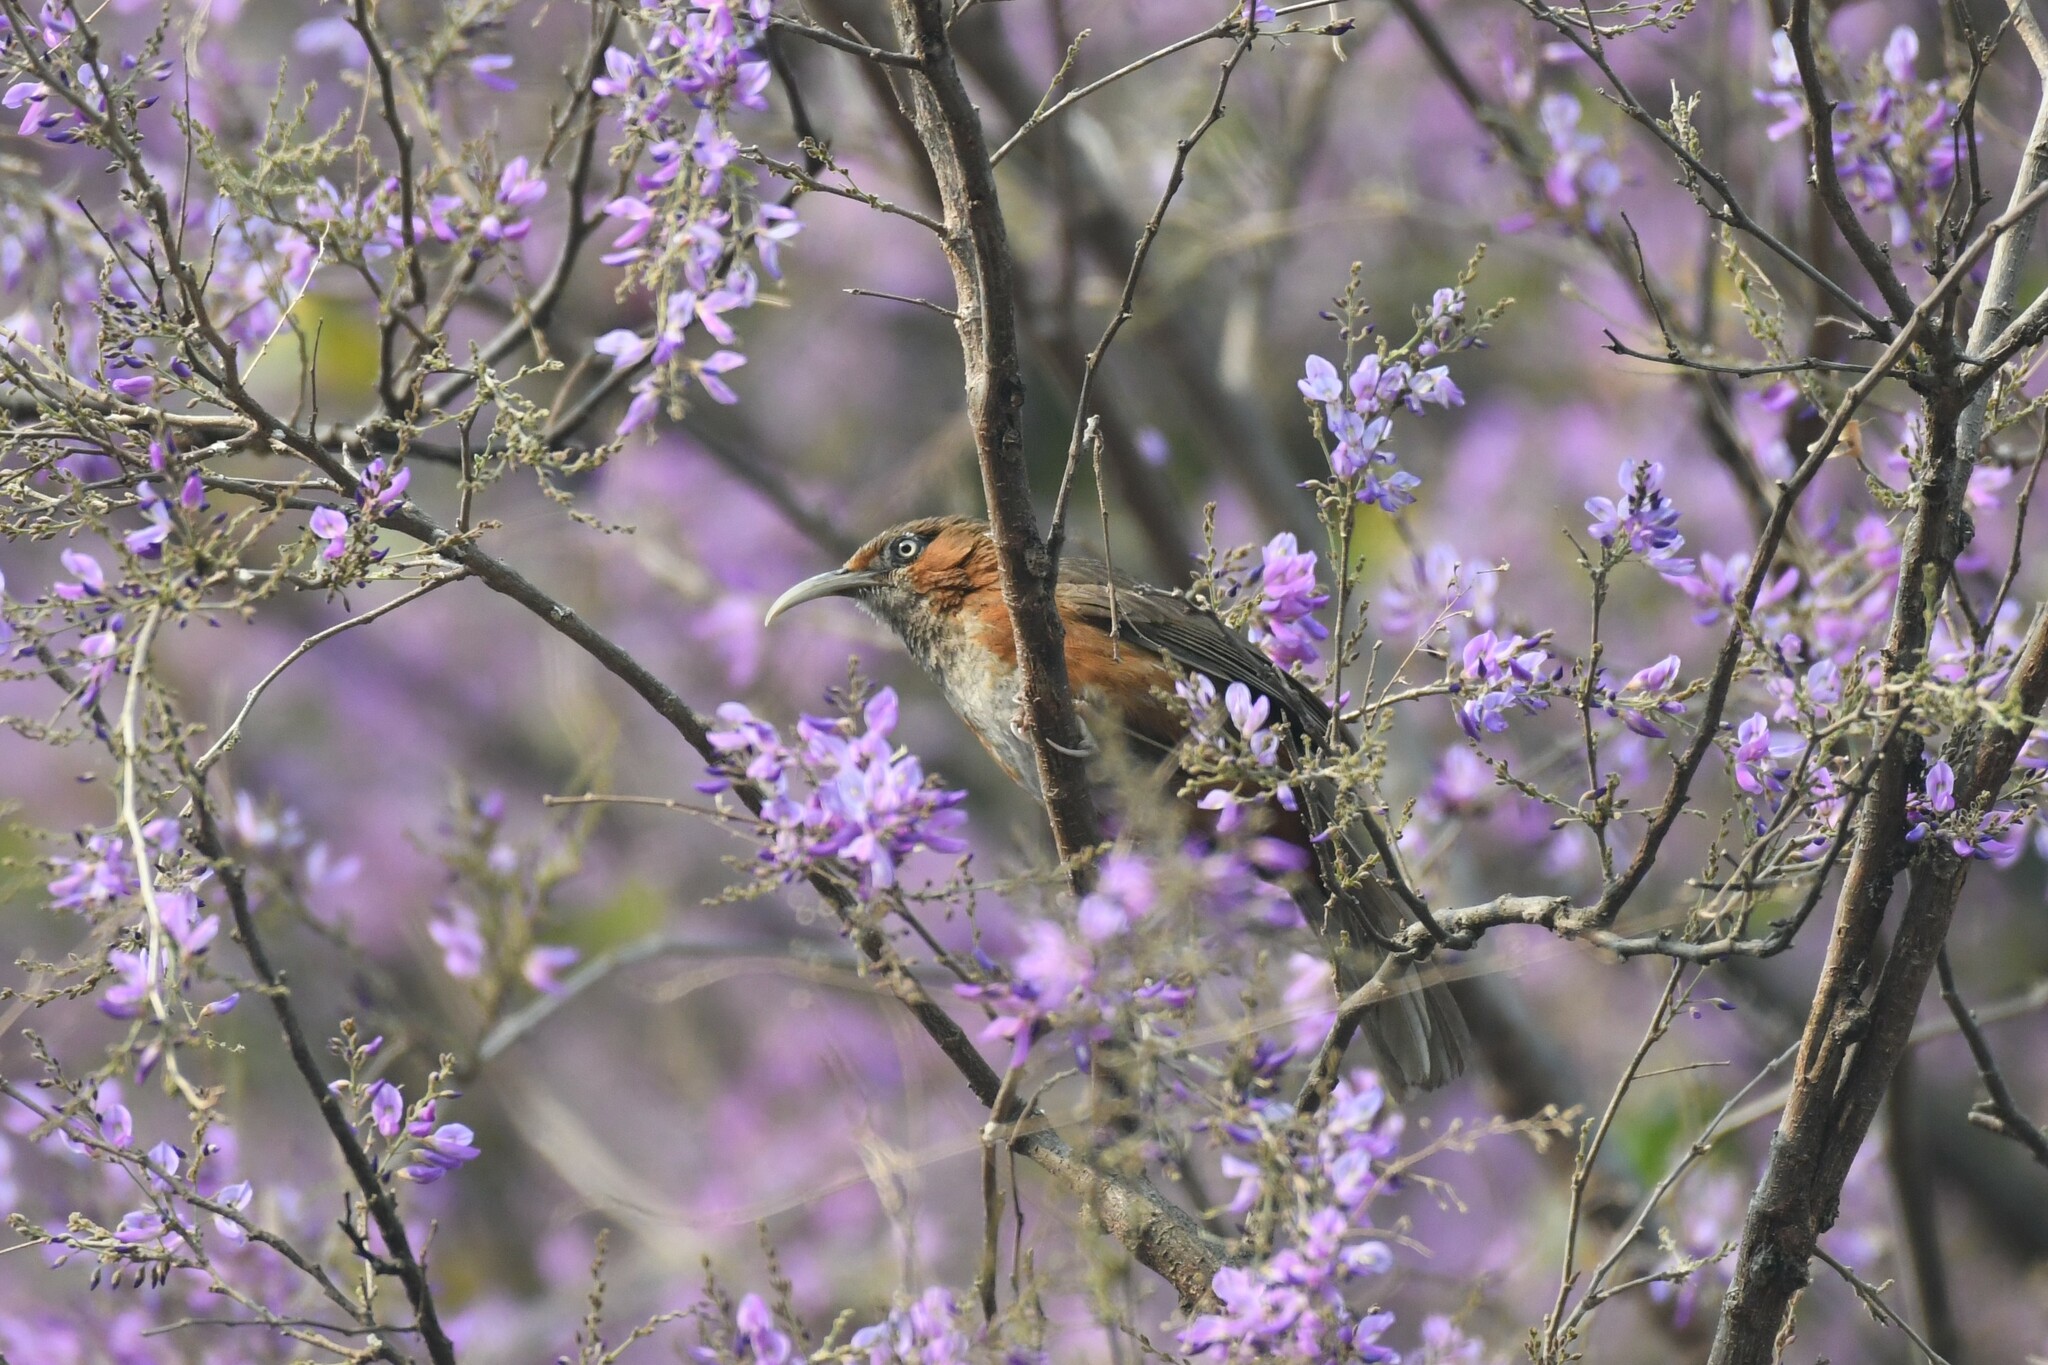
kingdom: Animalia
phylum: Chordata
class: Aves
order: Passeriformes
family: Timaliidae
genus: Pomatorhinus
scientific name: Pomatorhinus erythrogenys
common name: Rusty-cheeked scimitar babbler
